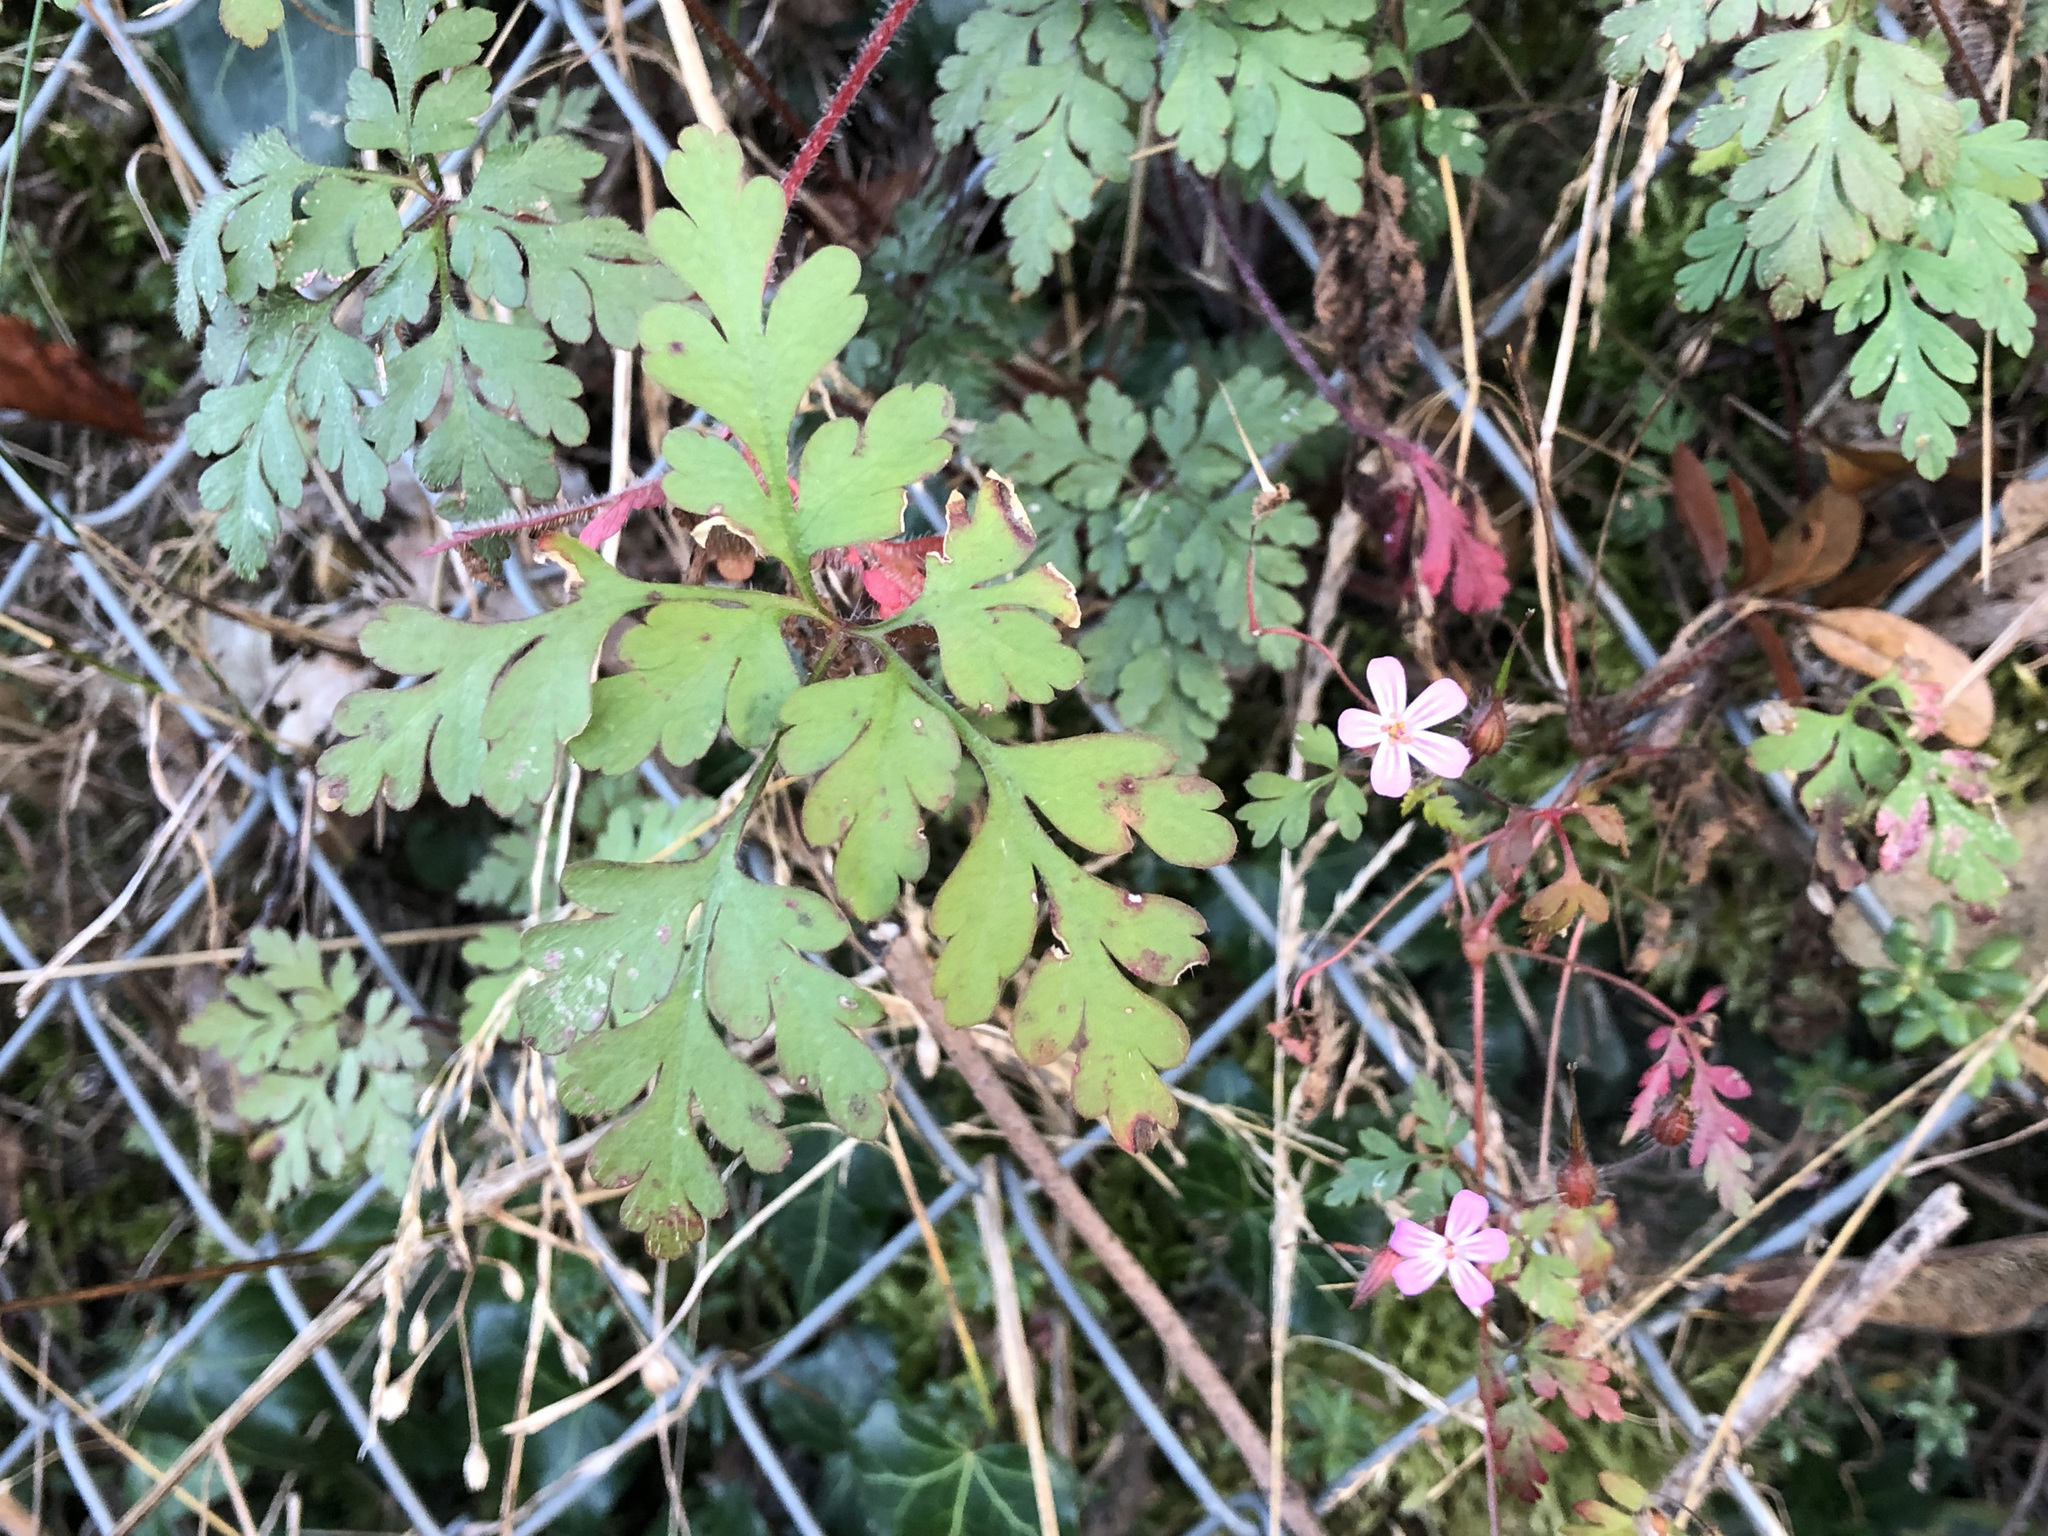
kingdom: Plantae
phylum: Tracheophyta
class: Magnoliopsida
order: Geraniales
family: Geraniaceae
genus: Geranium
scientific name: Geranium robertianum
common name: Herb-robert
